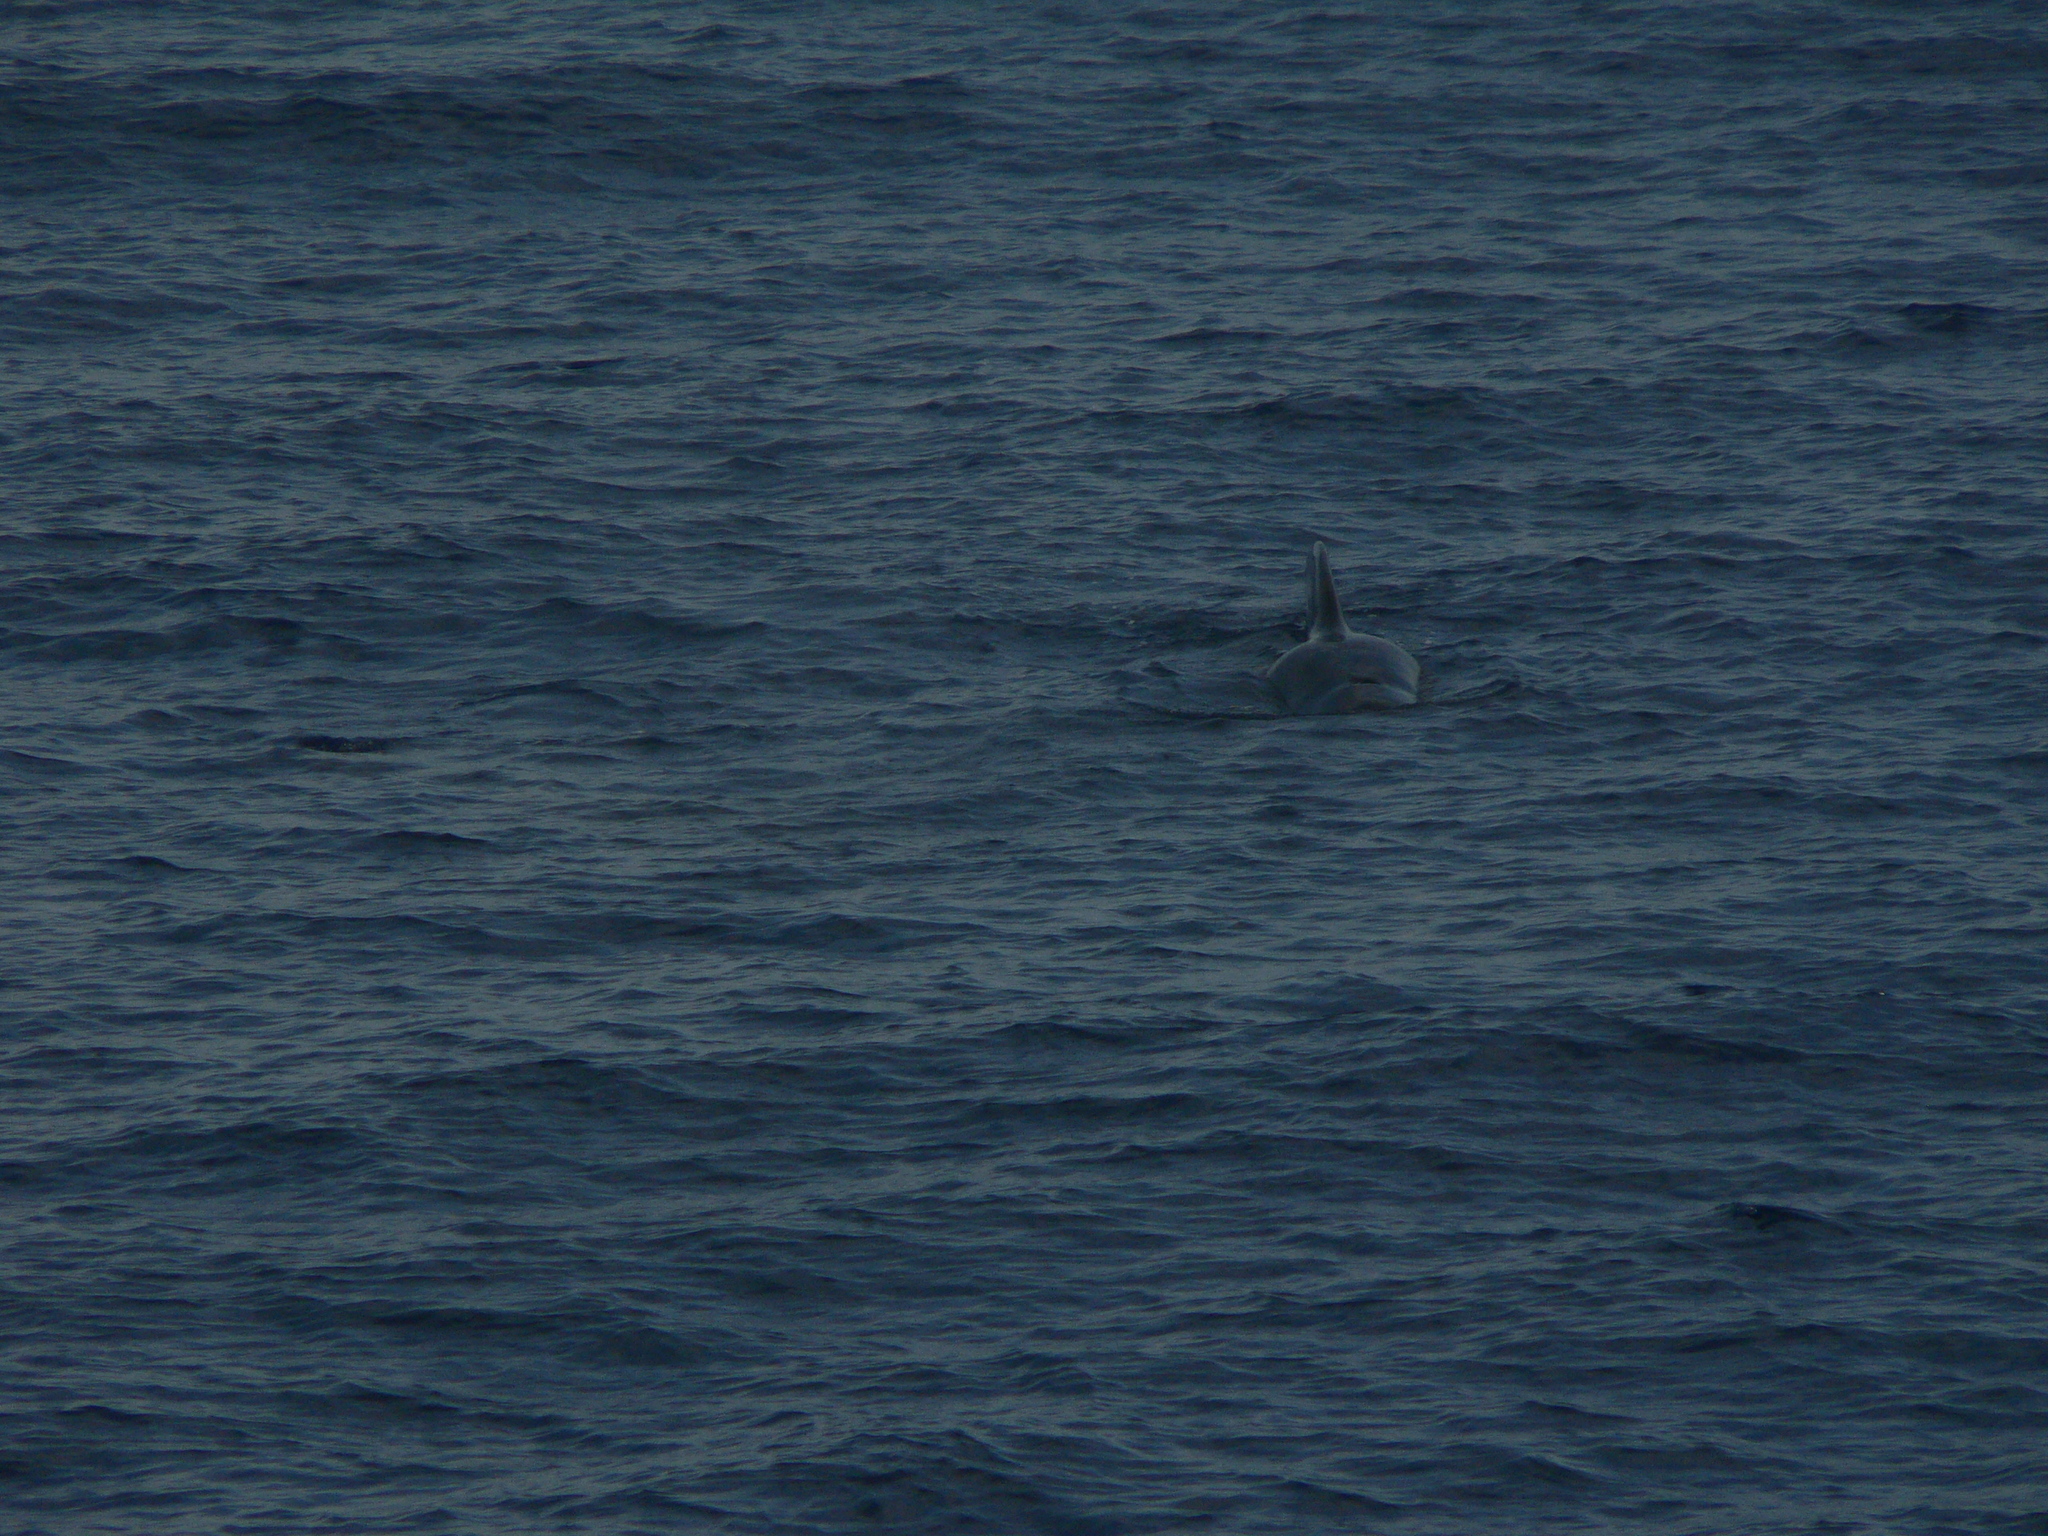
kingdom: Animalia
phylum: Chordata
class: Mammalia
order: Cetacea
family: Delphinidae
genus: Globicephala
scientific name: Globicephala macrorhynchus
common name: Short-finned pilot whale
